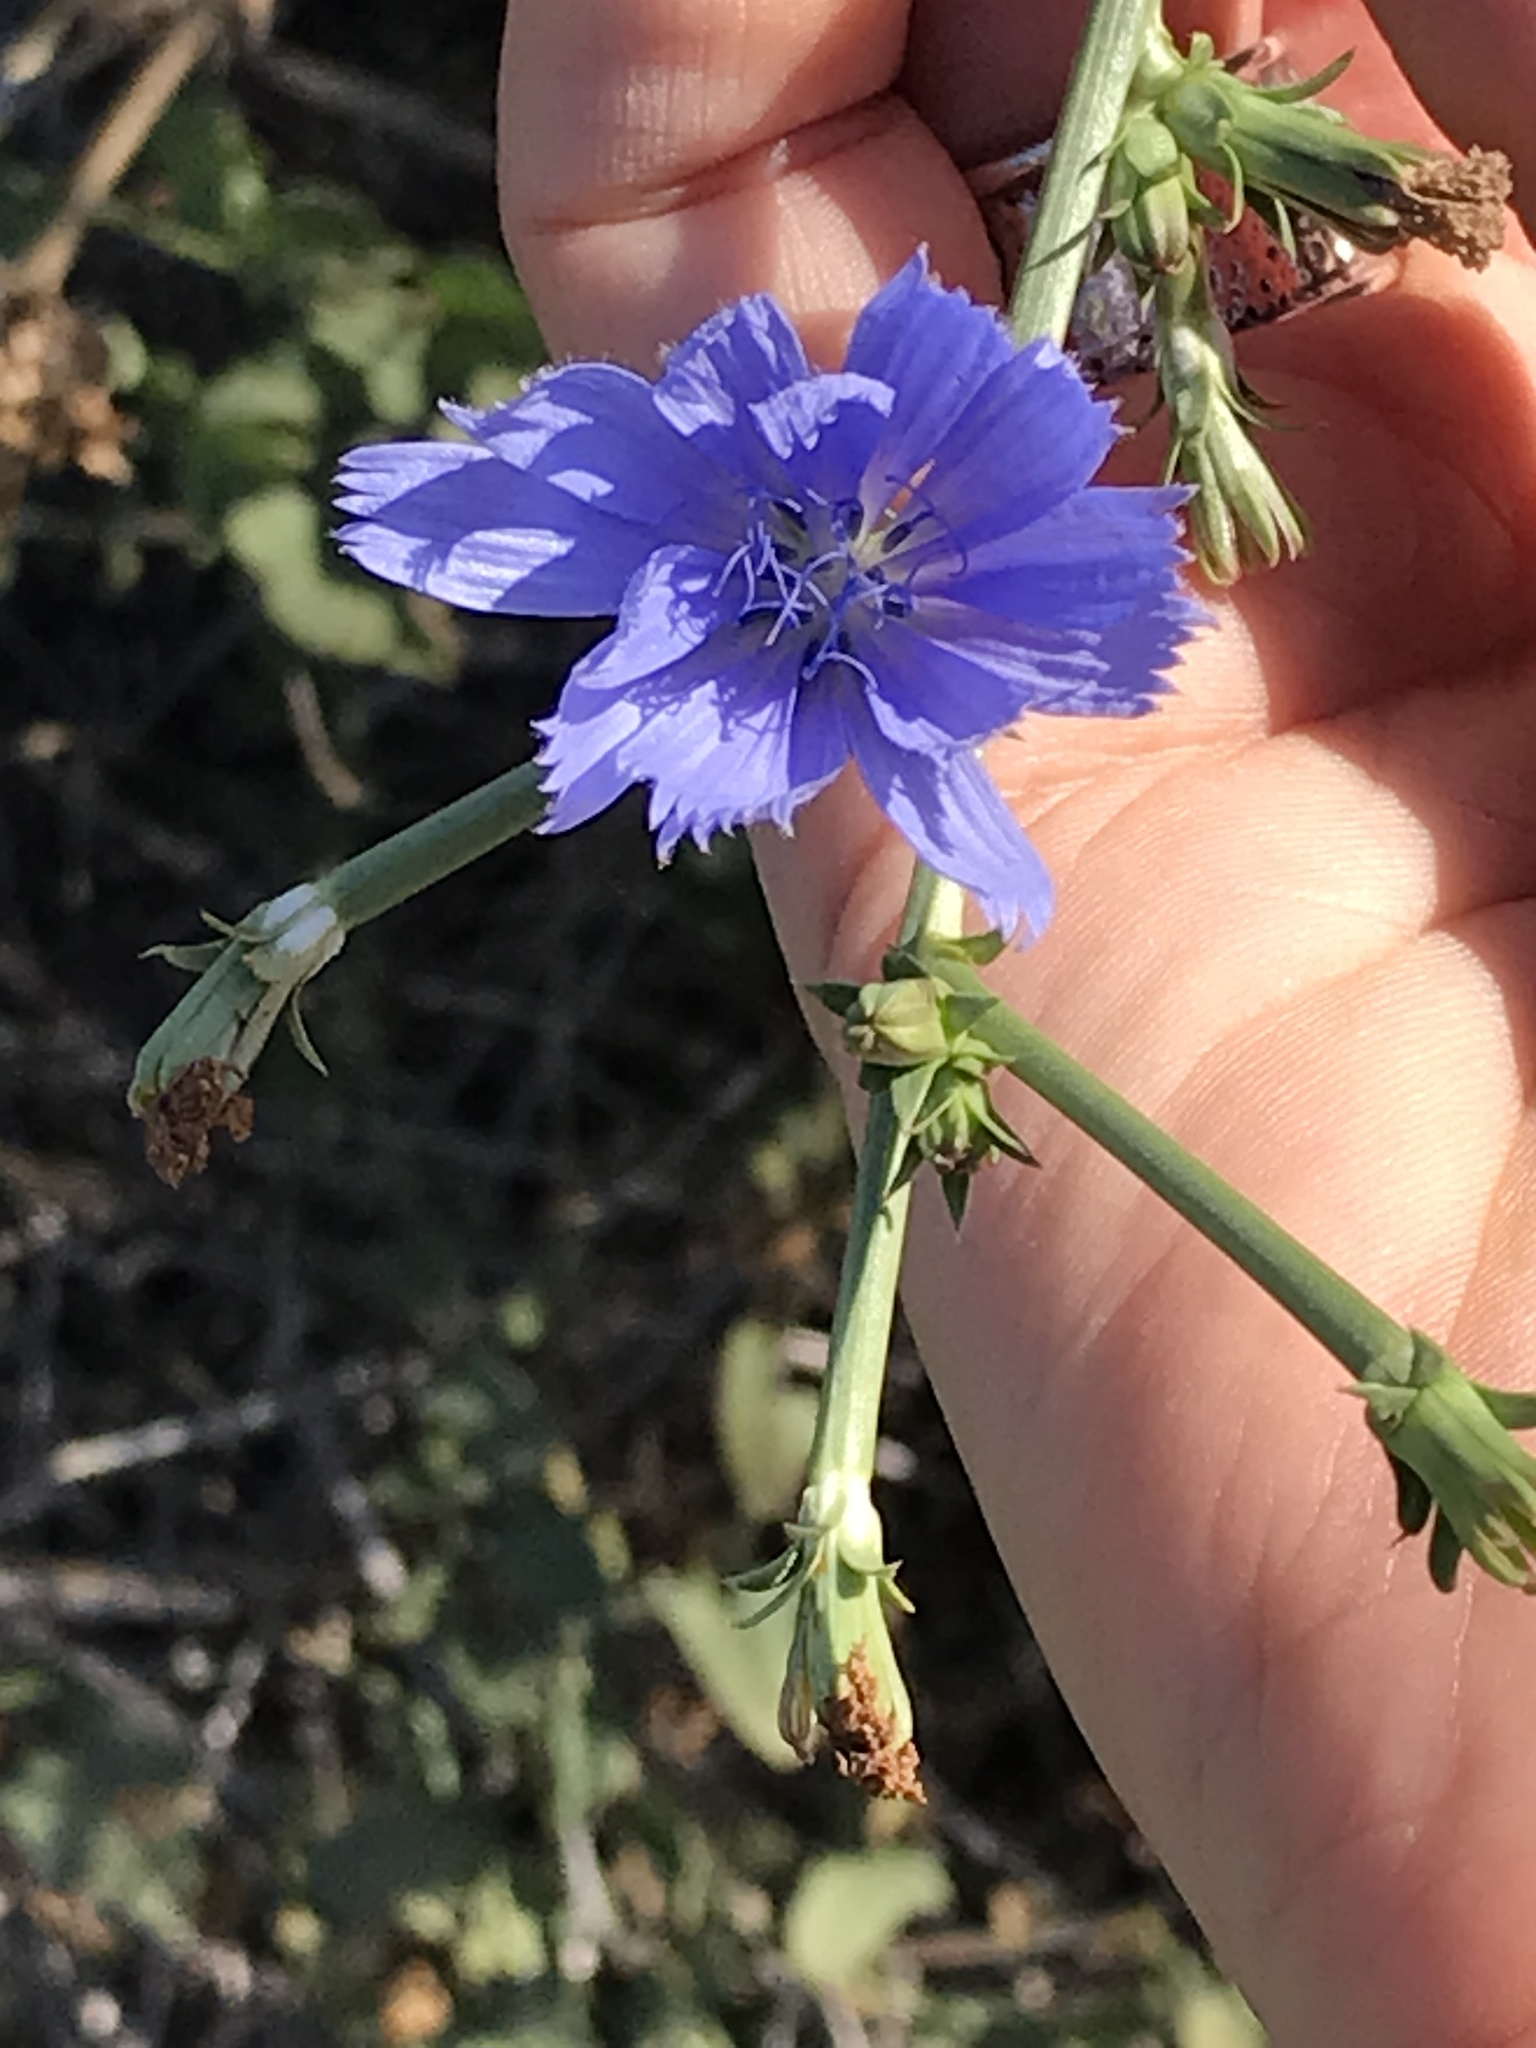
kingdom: Plantae
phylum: Tracheophyta
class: Magnoliopsida
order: Asterales
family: Asteraceae
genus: Cichorium
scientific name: Cichorium intybus
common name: Chicory
